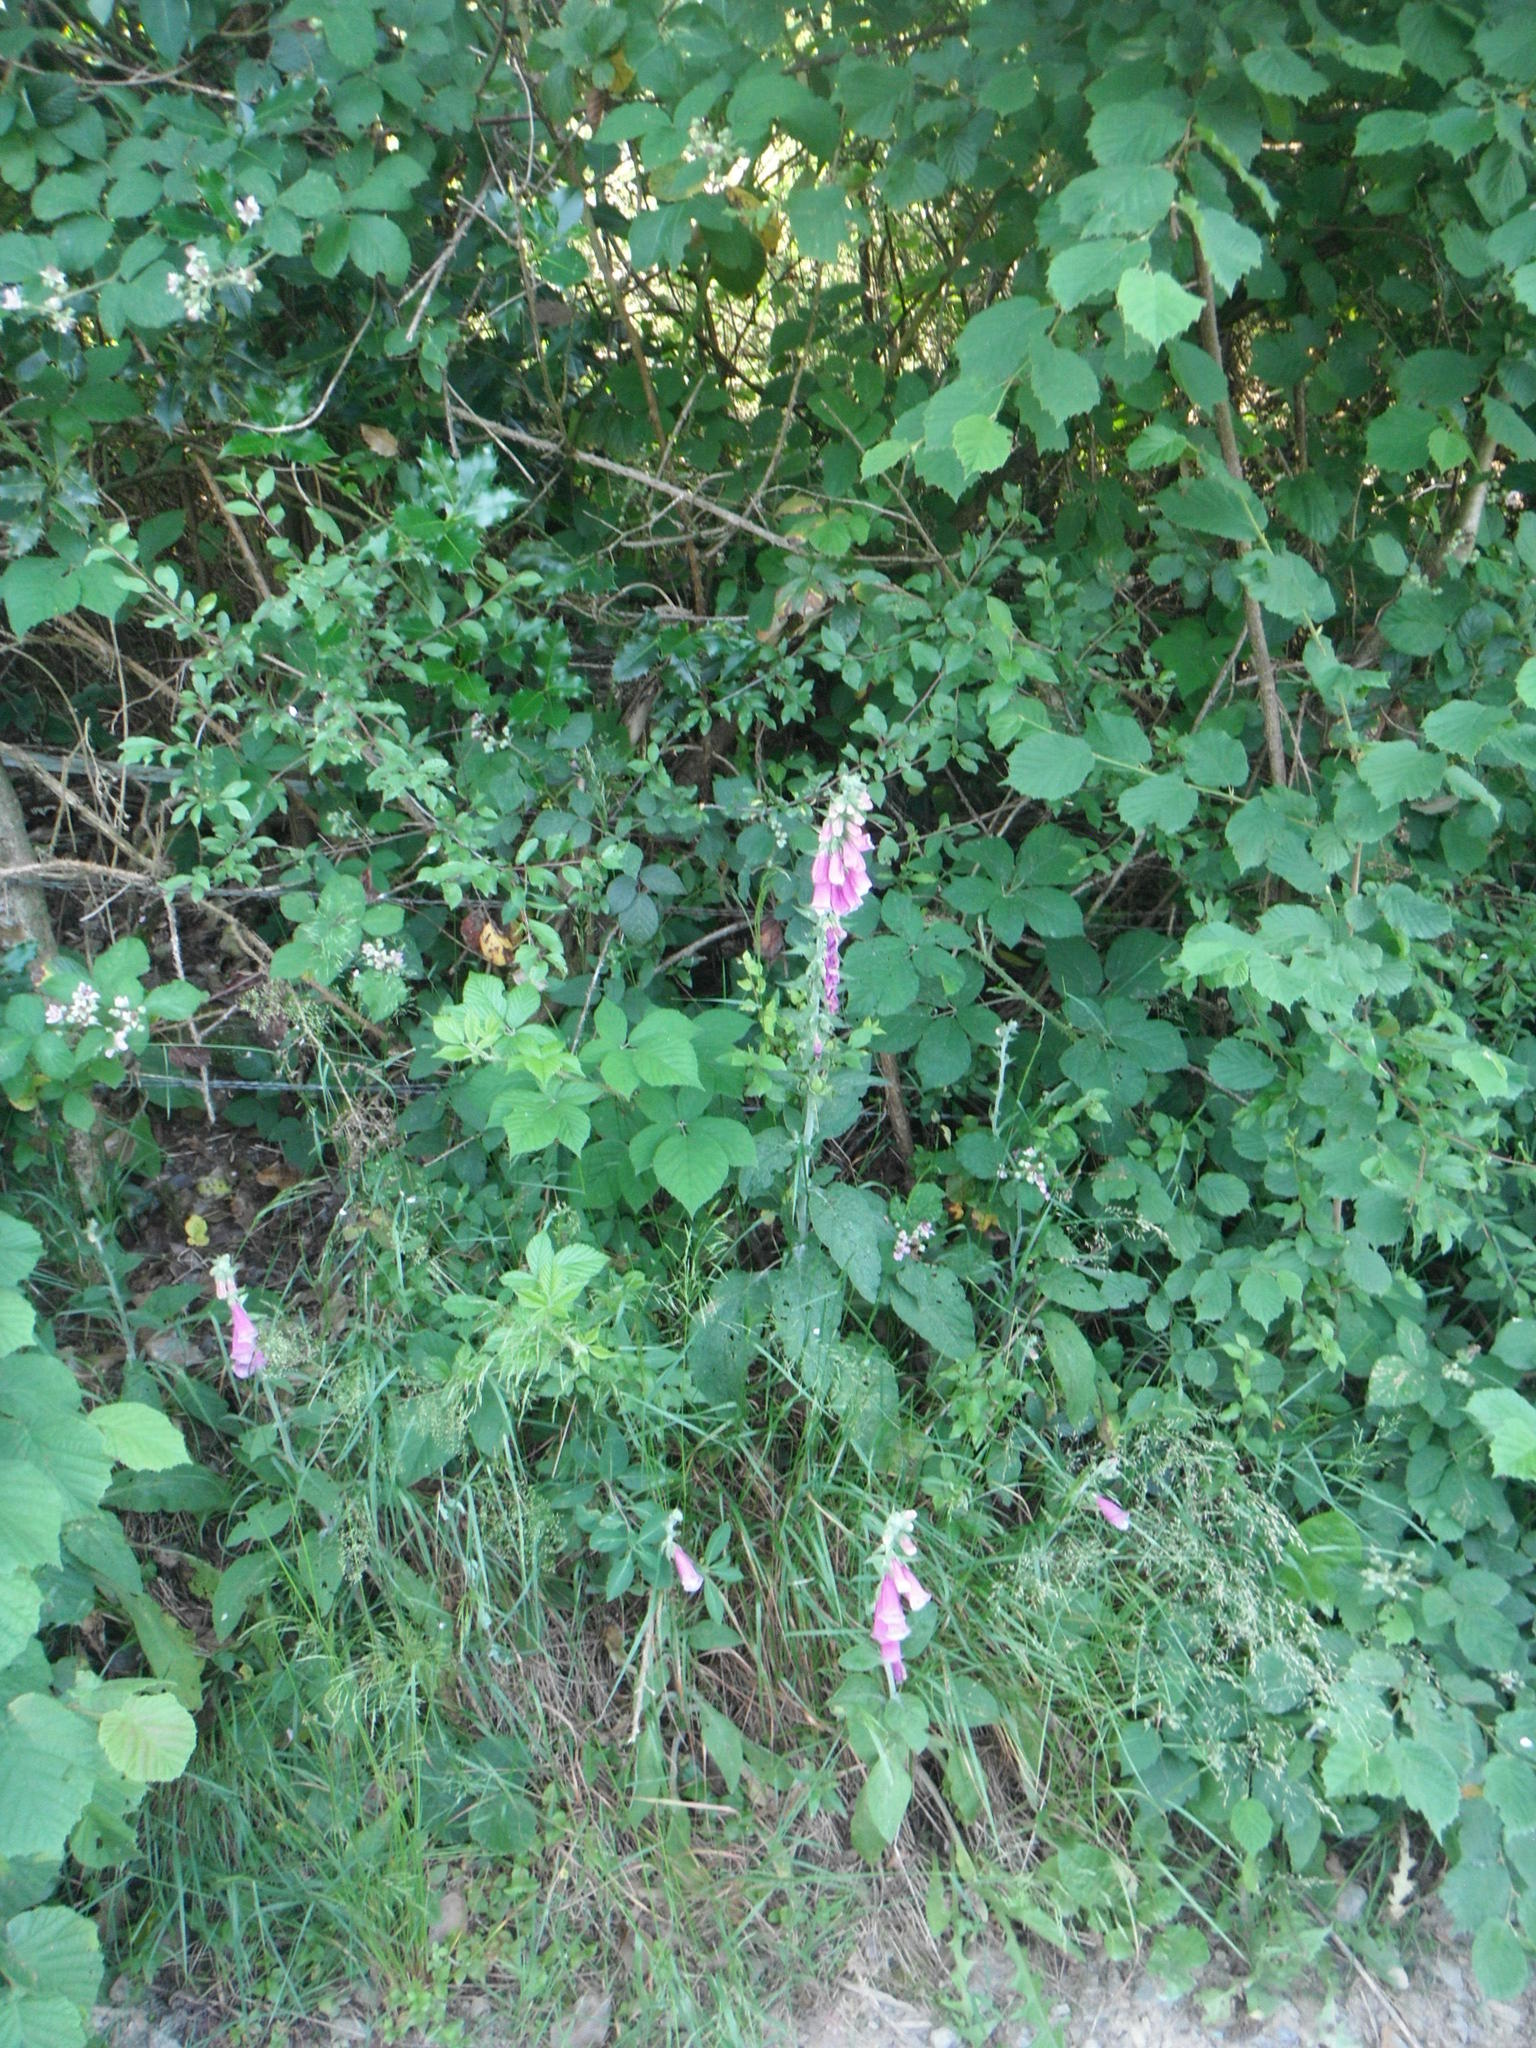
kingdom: Plantae
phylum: Tracheophyta
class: Magnoliopsida
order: Lamiales
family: Plantaginaceae
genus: Digitalis
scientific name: Digitalis purpurea
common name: Foxglove
